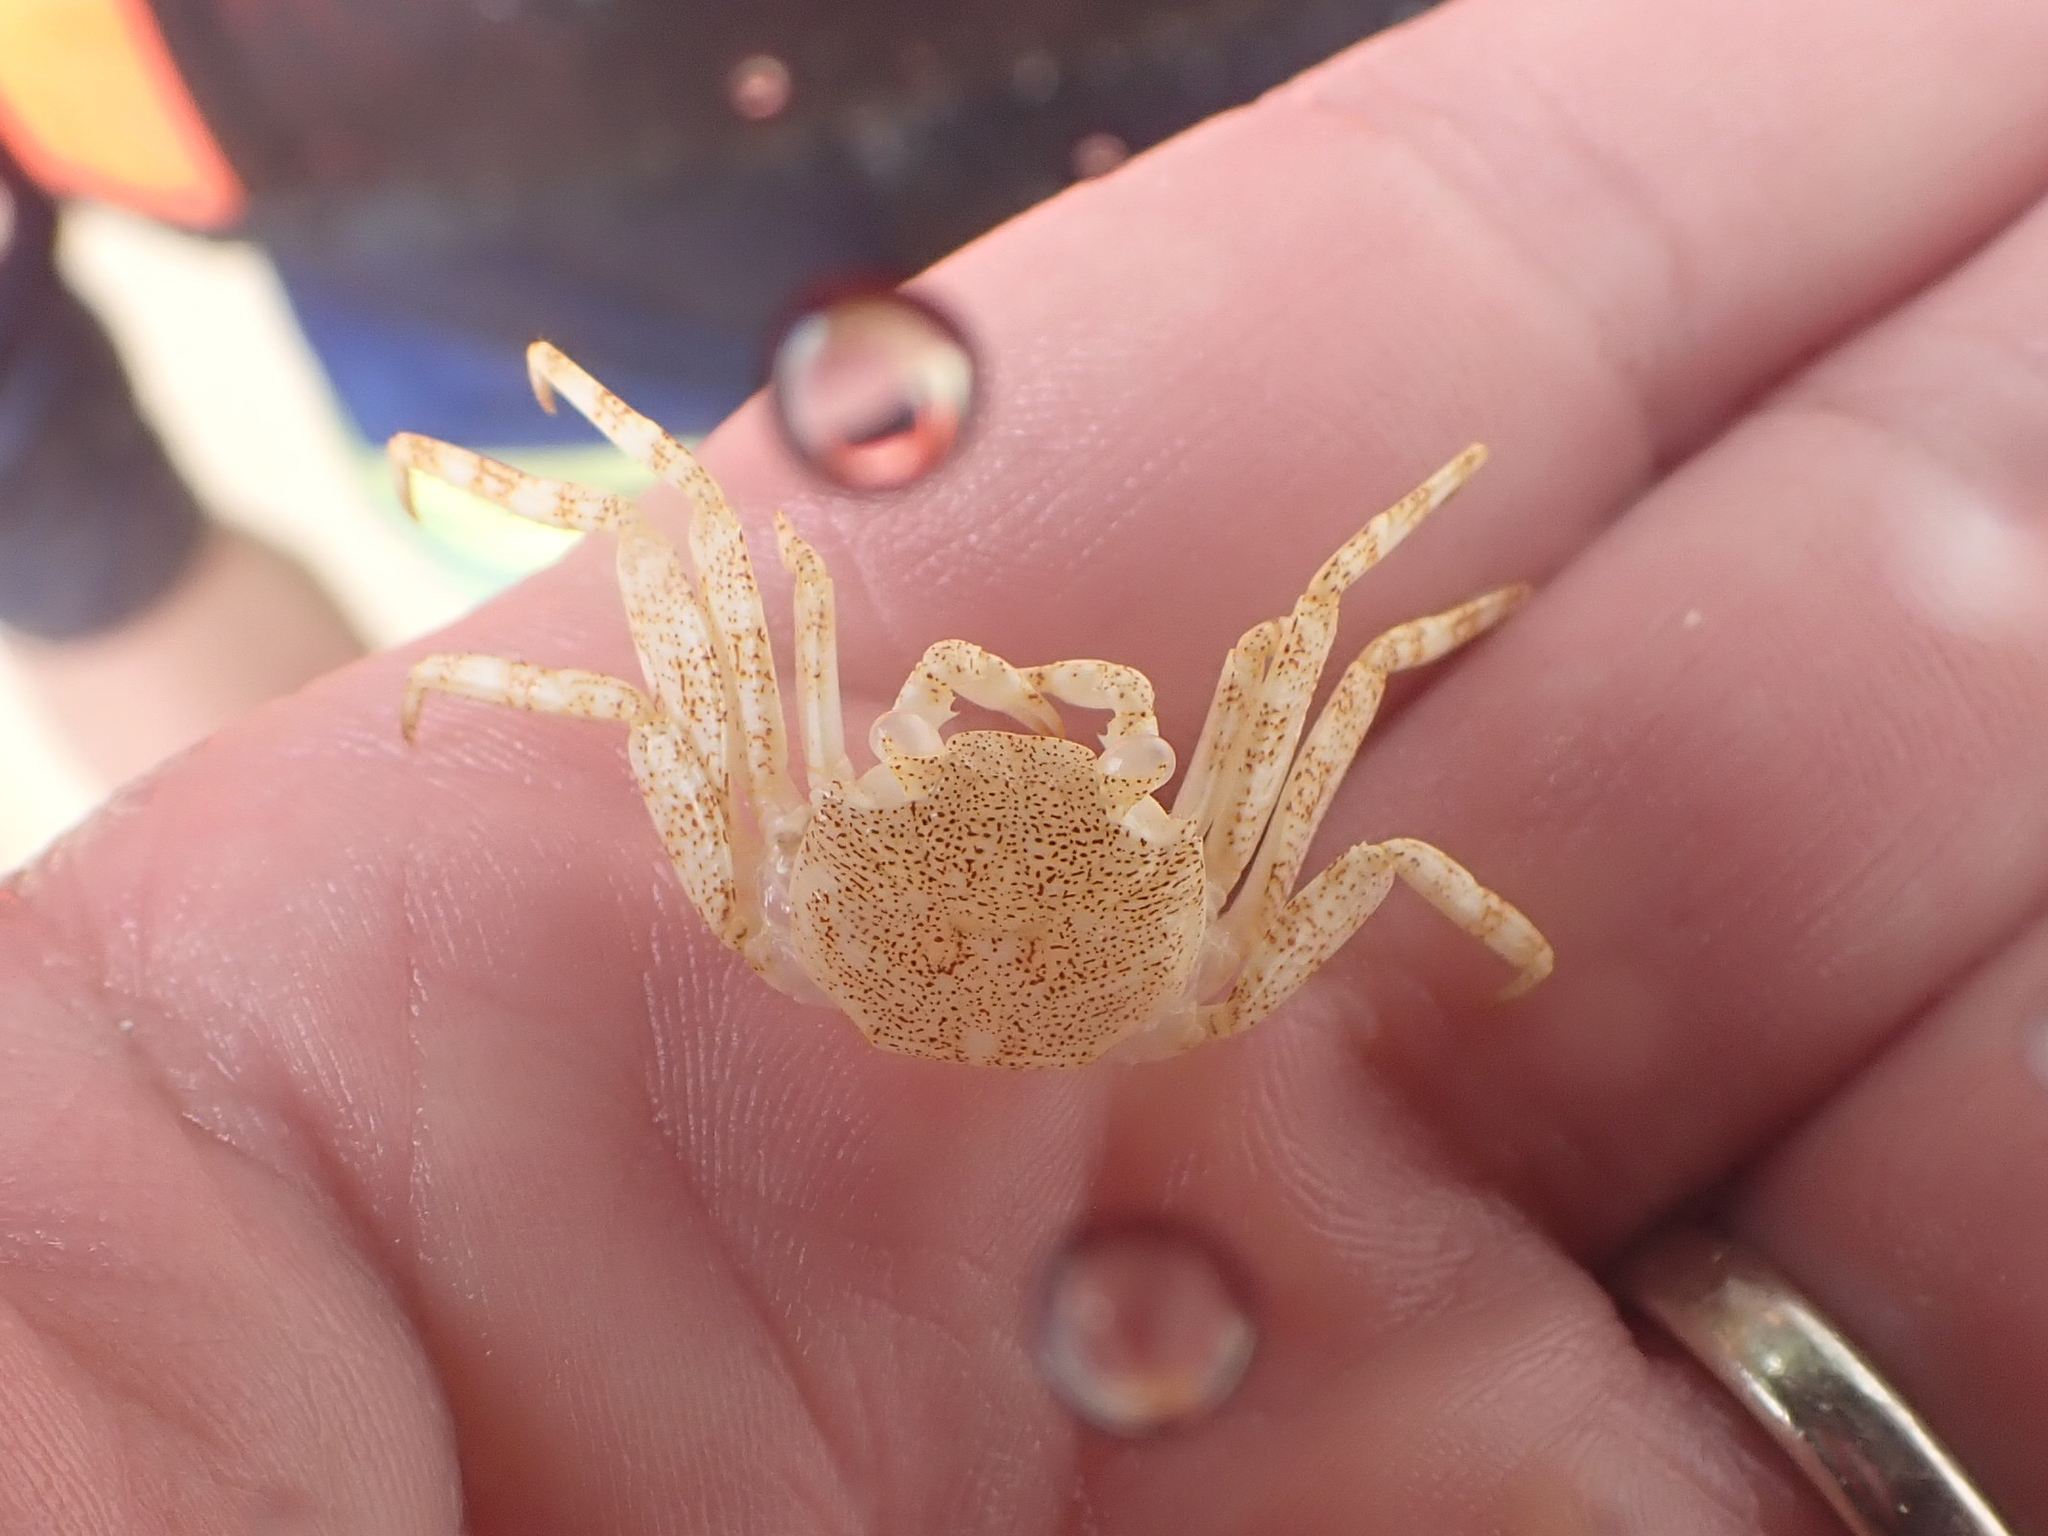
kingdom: Animalia
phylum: Arthropoda
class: Malacostraca
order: Decapoda
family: Grapsidae
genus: Grapsus
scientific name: Grapsus grapsus
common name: Sally lightfoot
